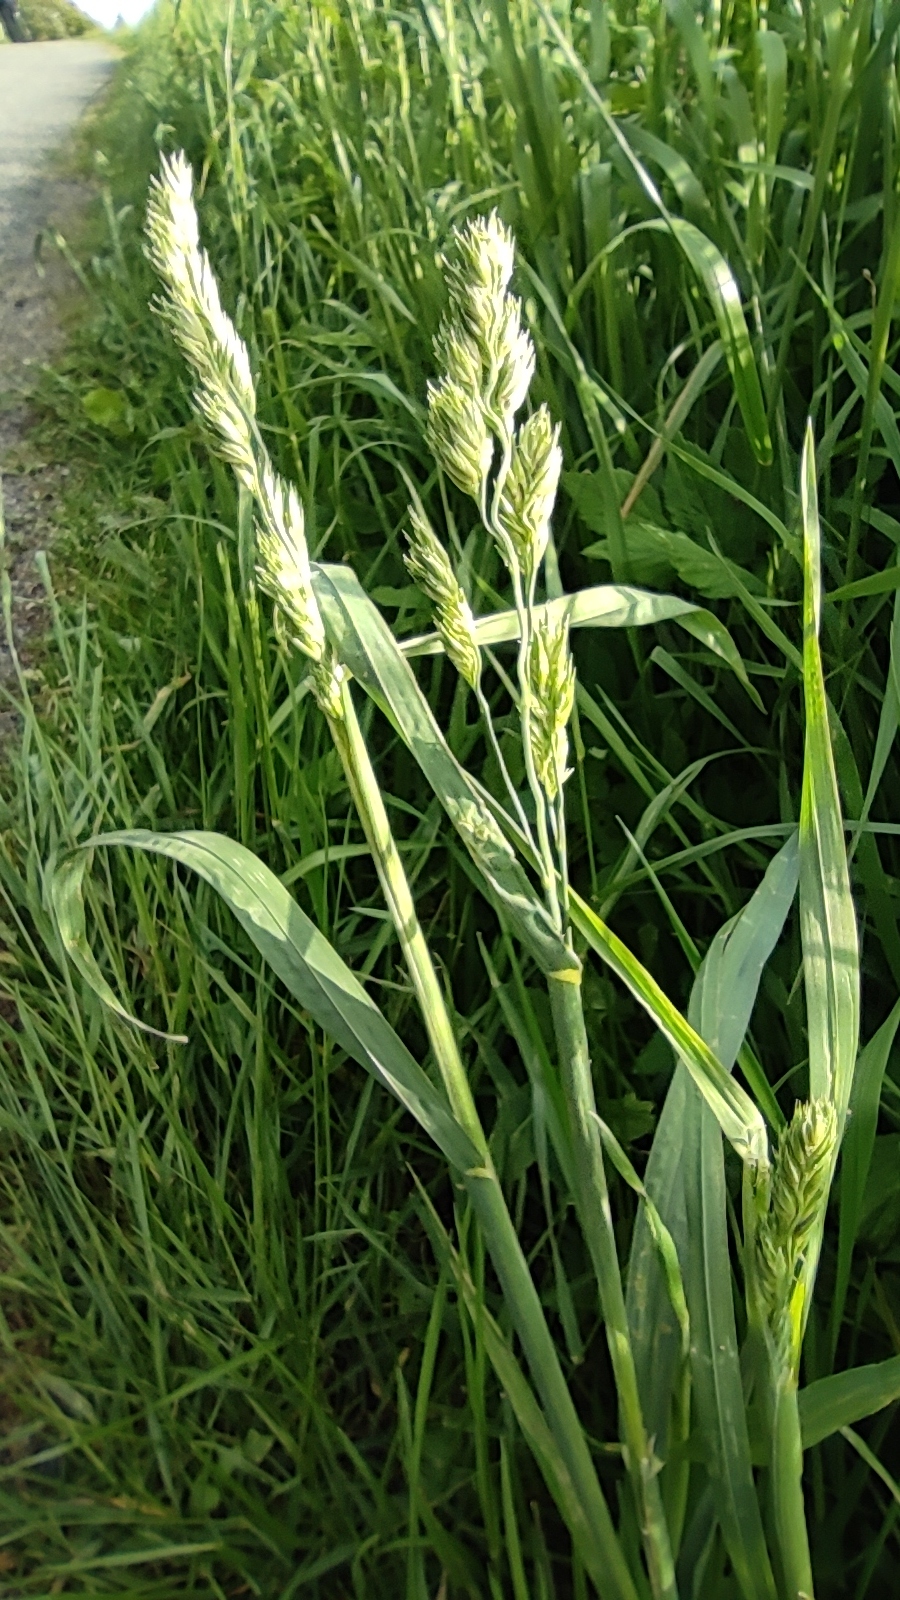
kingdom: Plantae
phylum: Tracheophyta
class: Liliopsida
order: Poales
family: Poaceae
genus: Dactylis
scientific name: Dactylis glomerata
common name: Orchardgrass
